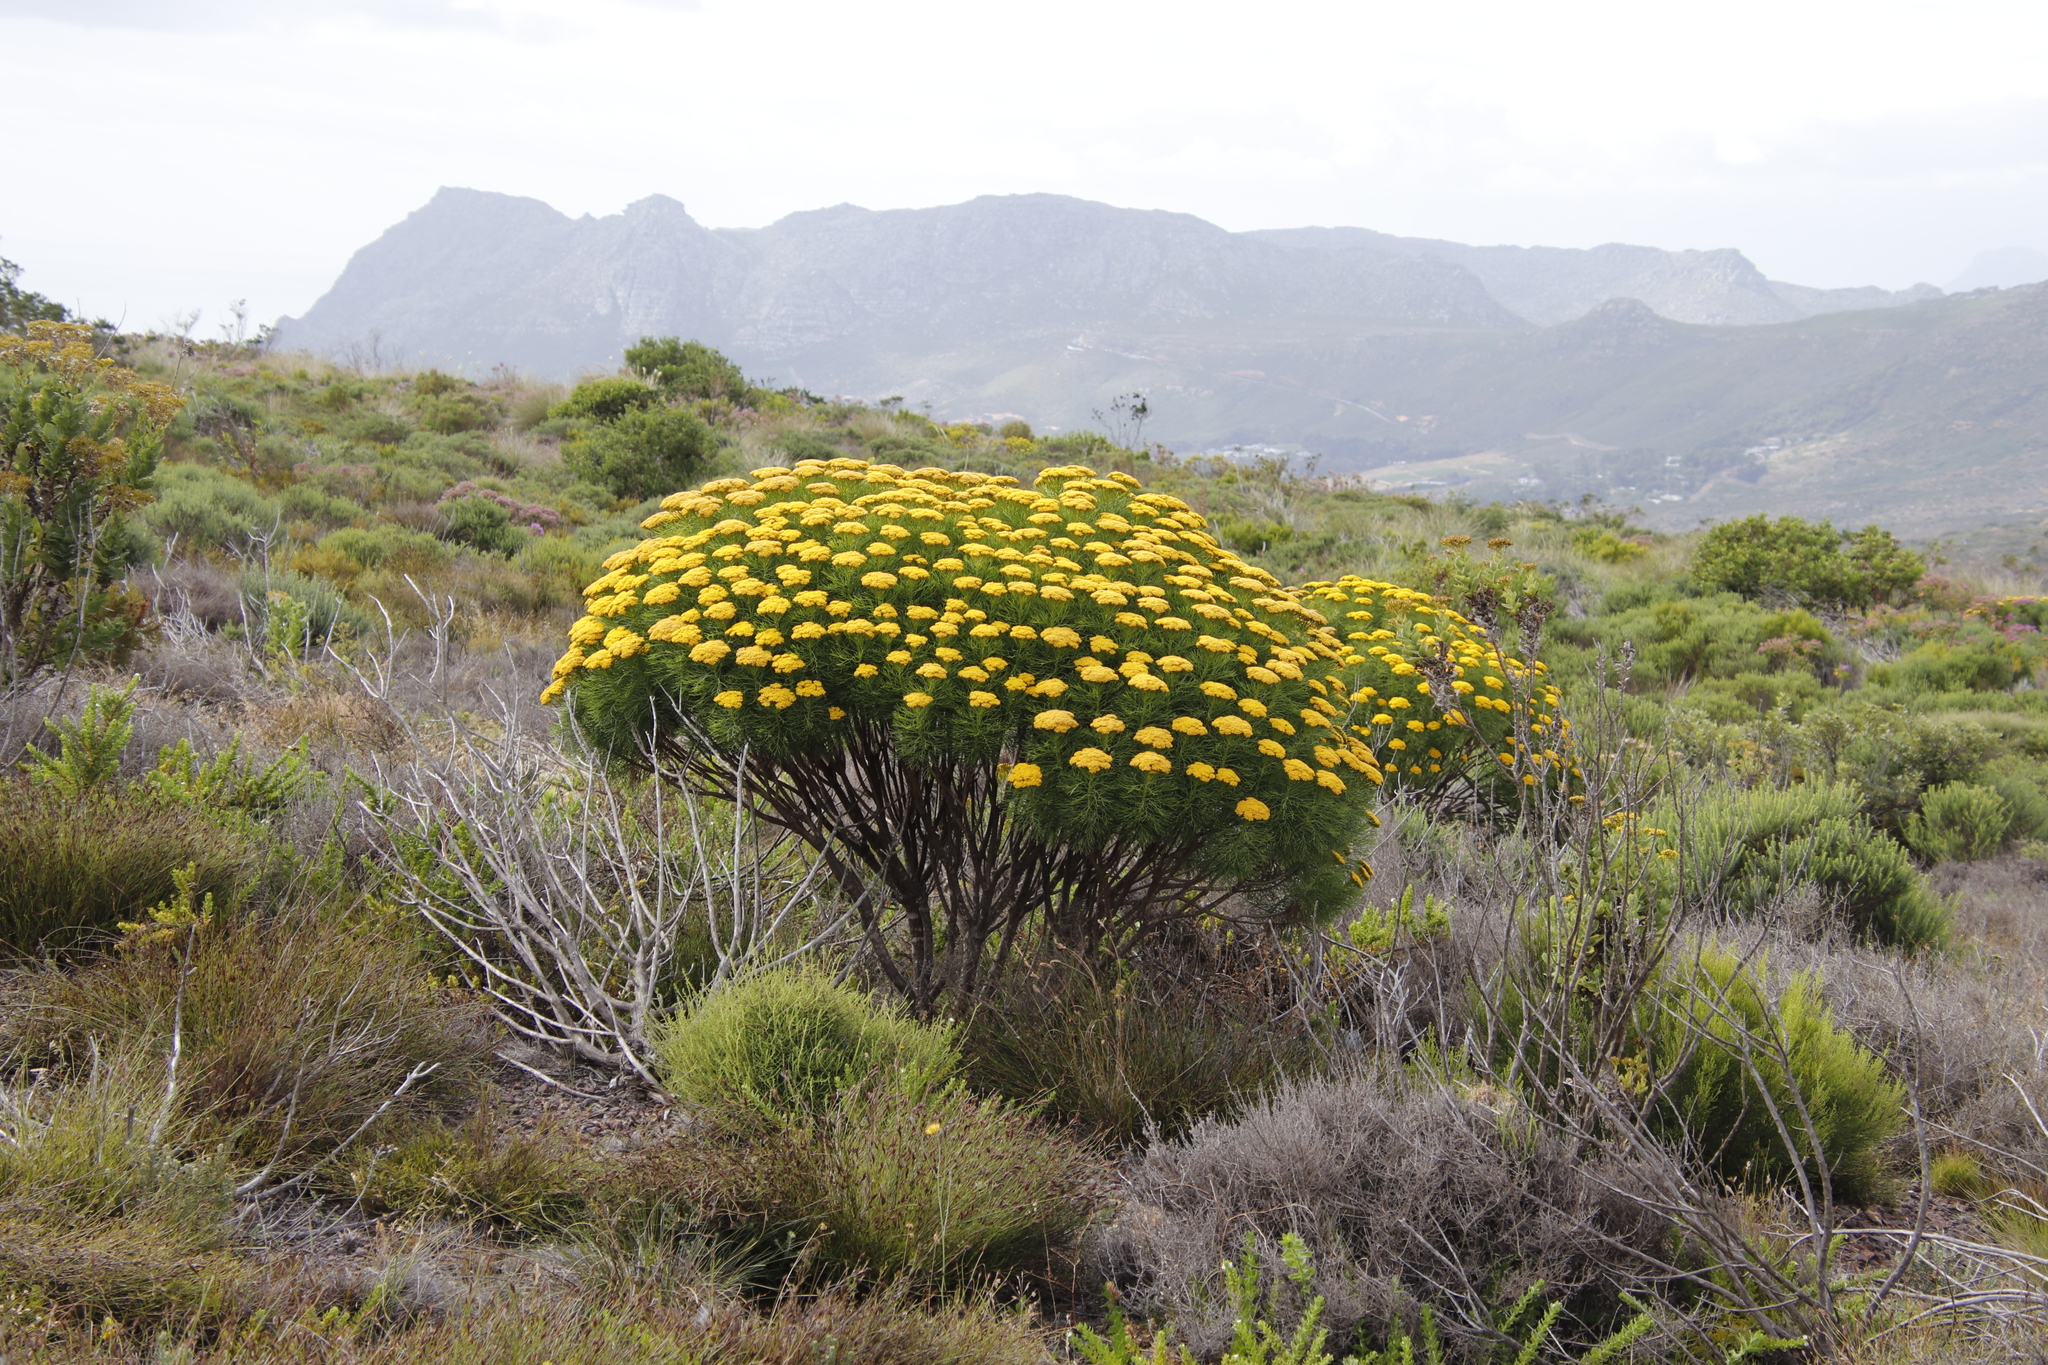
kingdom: Plantae
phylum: Tracheophyta
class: Magnoliopsida
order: Asterales
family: Asteraceae
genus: Hymenolepis
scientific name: Hymenolepis crithmifolia
